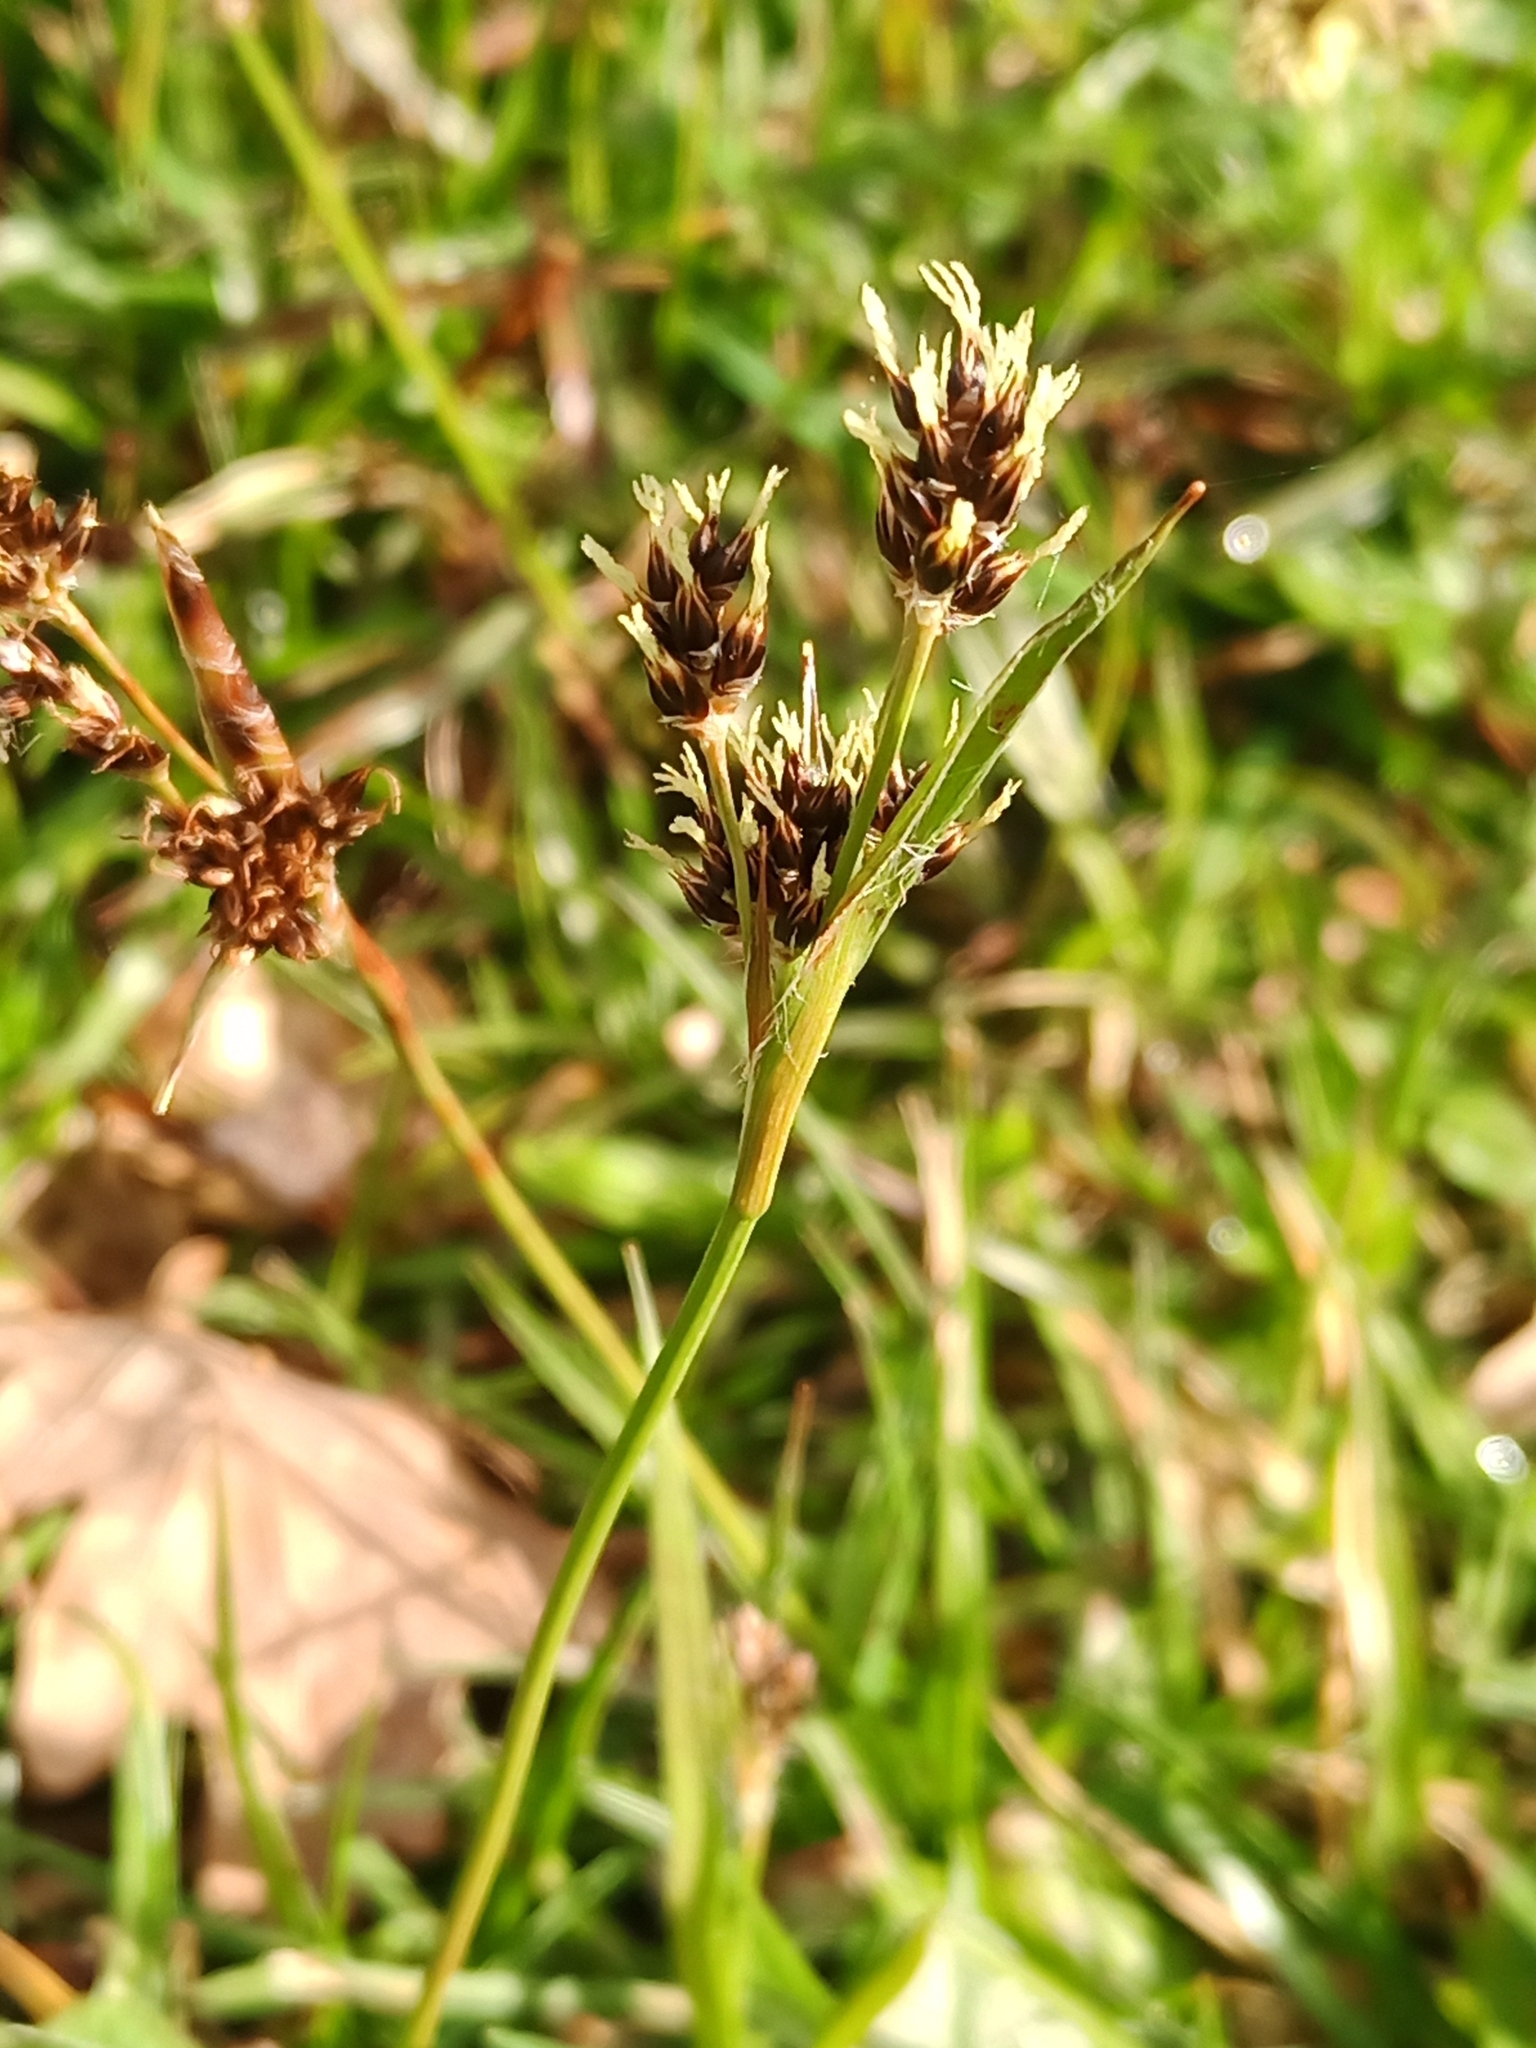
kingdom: Plantae
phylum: Tracheophyta
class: Liliopsida
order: Poales
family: Juncaceae
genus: Luzula
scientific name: Luzula campestris
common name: Field wood-rush
